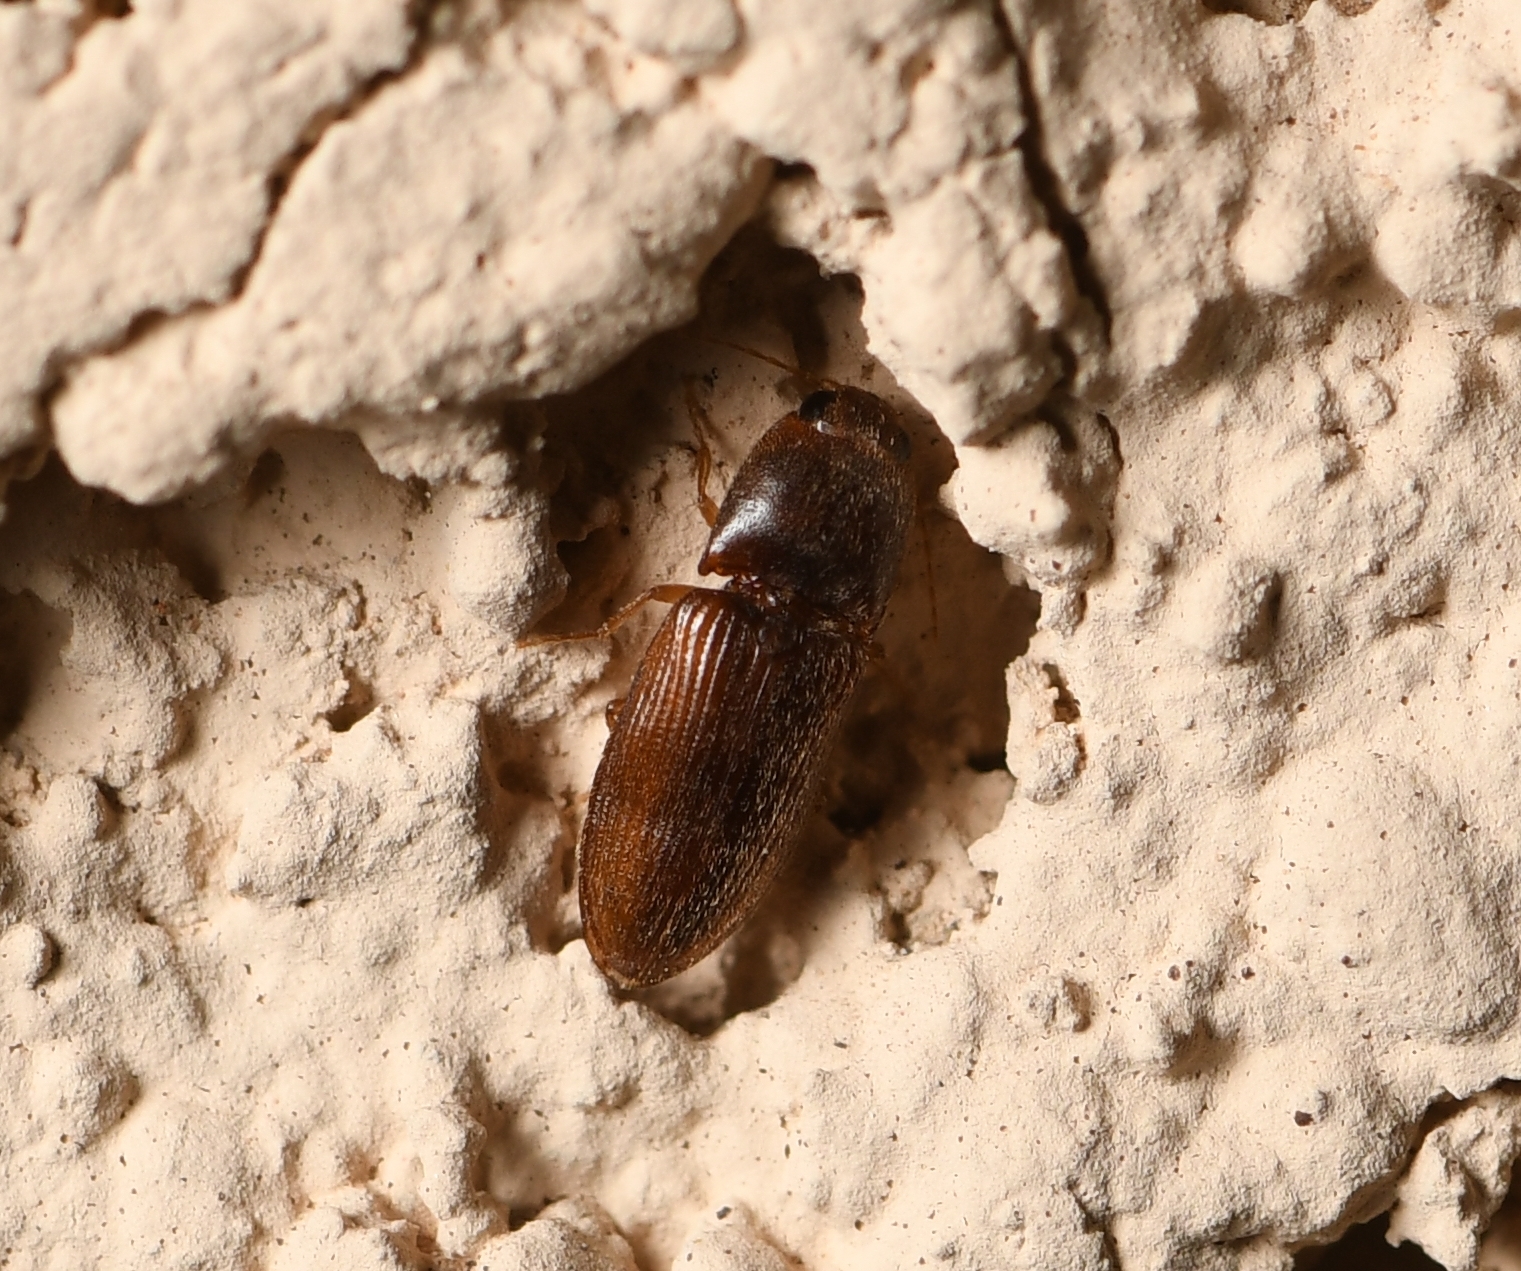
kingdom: Animalia
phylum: Arthropoda
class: Insecta
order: Coleoptera
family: Elateridae
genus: Esthesopus
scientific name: Esthesopus
